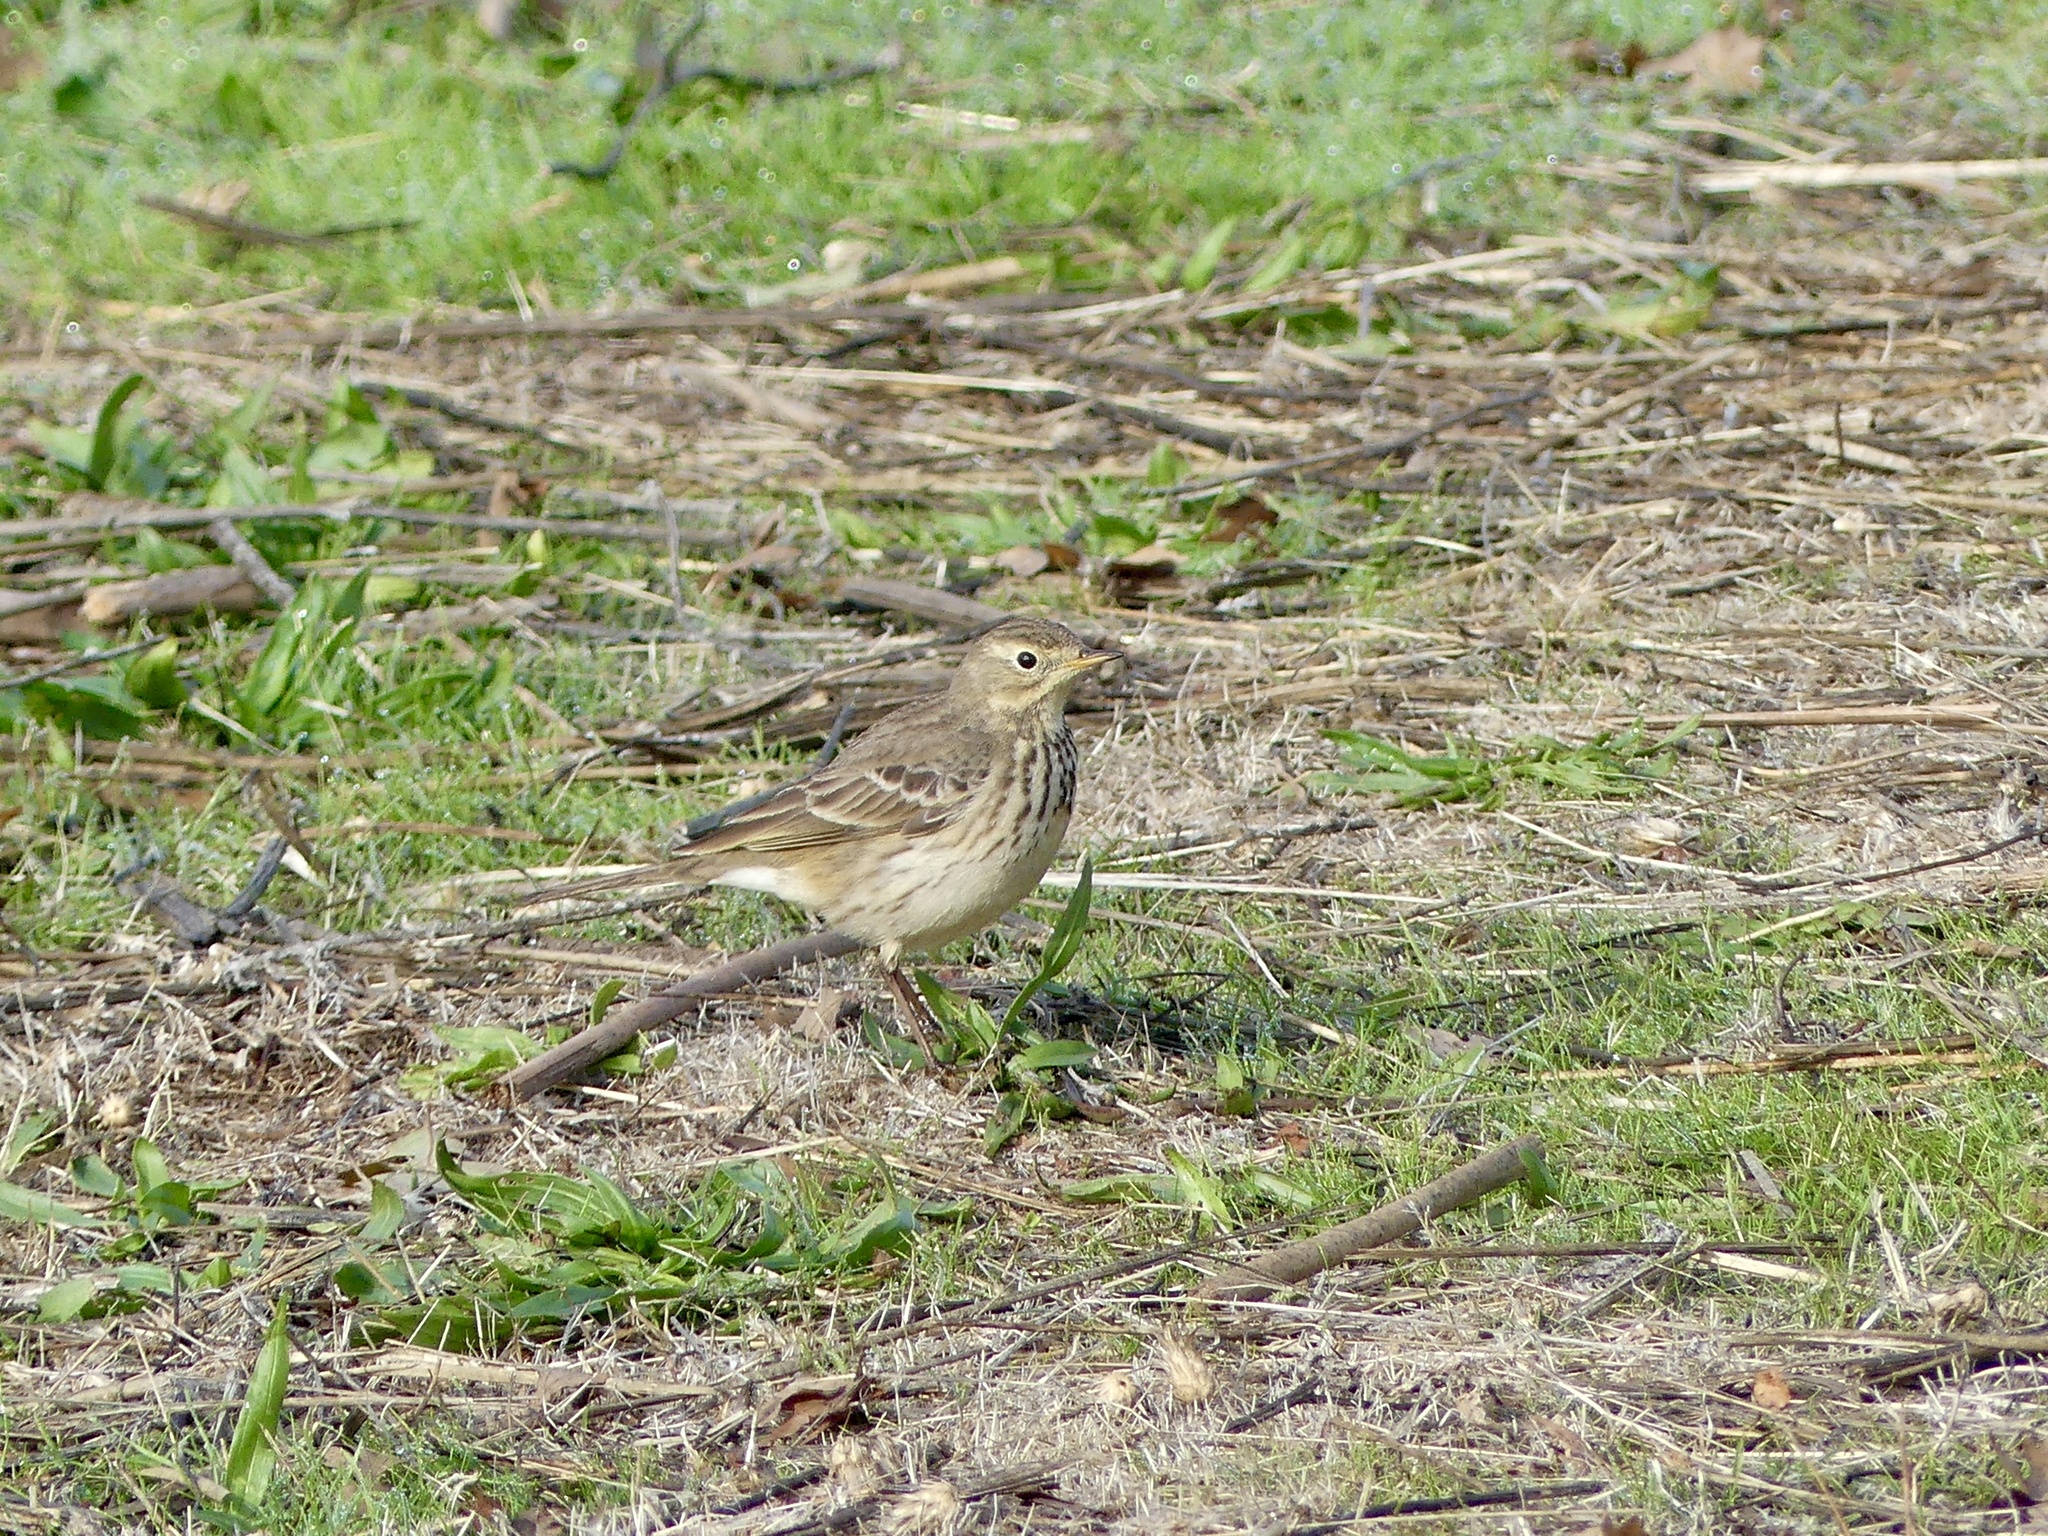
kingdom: Animalia
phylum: Chordata
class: Aves
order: Passeriformes
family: Motacillidae
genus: Anthus
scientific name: Anthus rubescens
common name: Buff-bellied pipit
